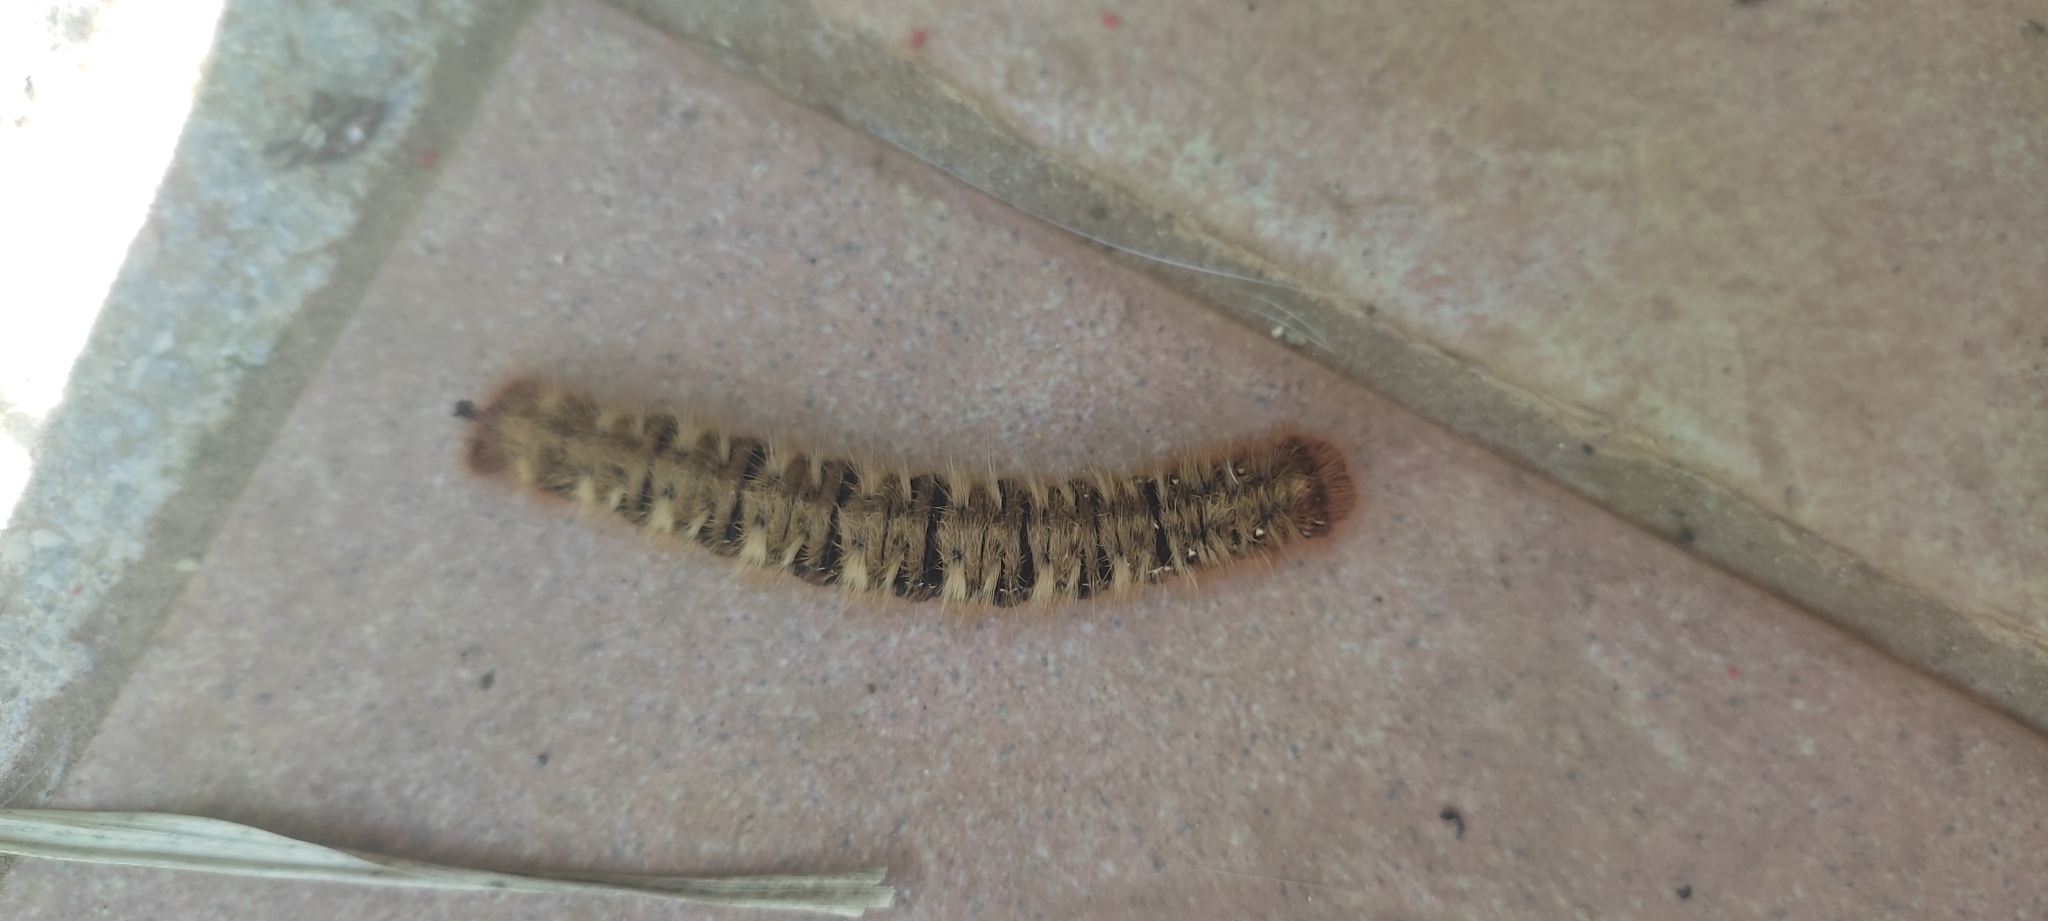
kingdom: Animalia
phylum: Arthropoda
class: Insecta
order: Lepidoptera
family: Lasiocampidae
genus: Lasiocampa
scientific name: Lasiocampa quercus
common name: Oak eggar
